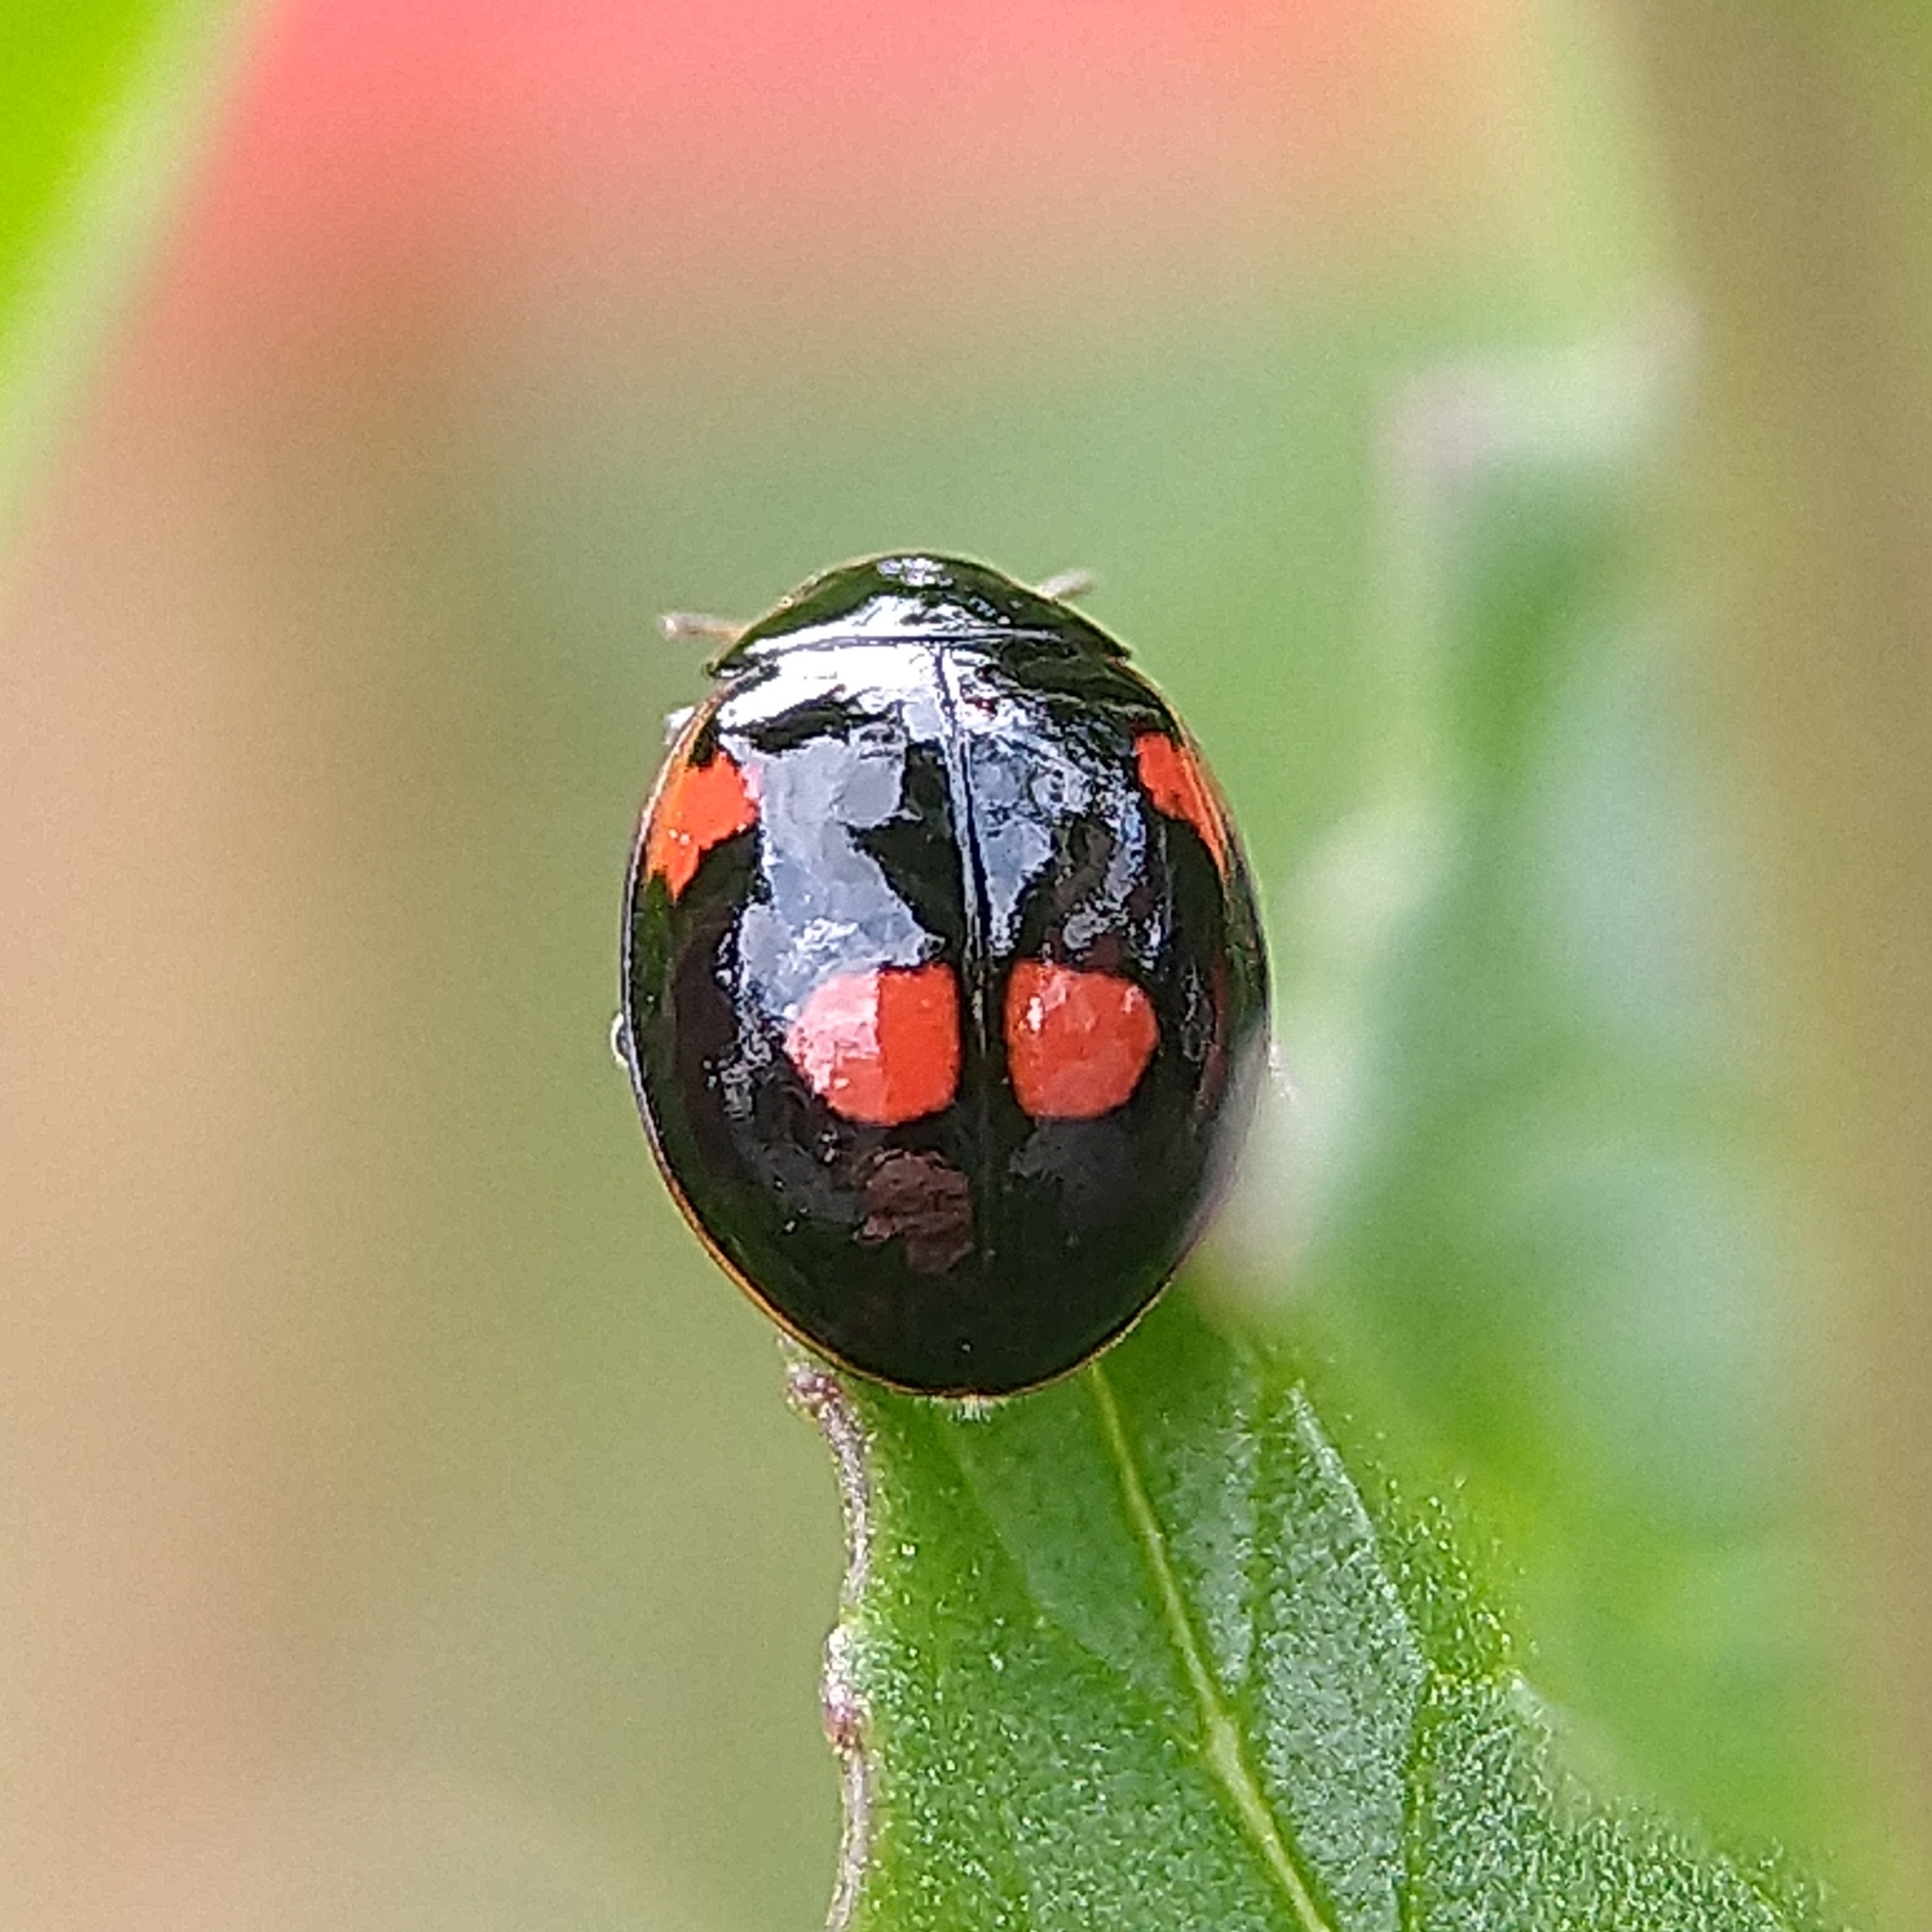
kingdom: Animalia
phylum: Arthropoda
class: Insecta
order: Coleoptera
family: Coccinellidae
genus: Adalia
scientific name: Adalia bipunctata
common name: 2-spot ladybird
